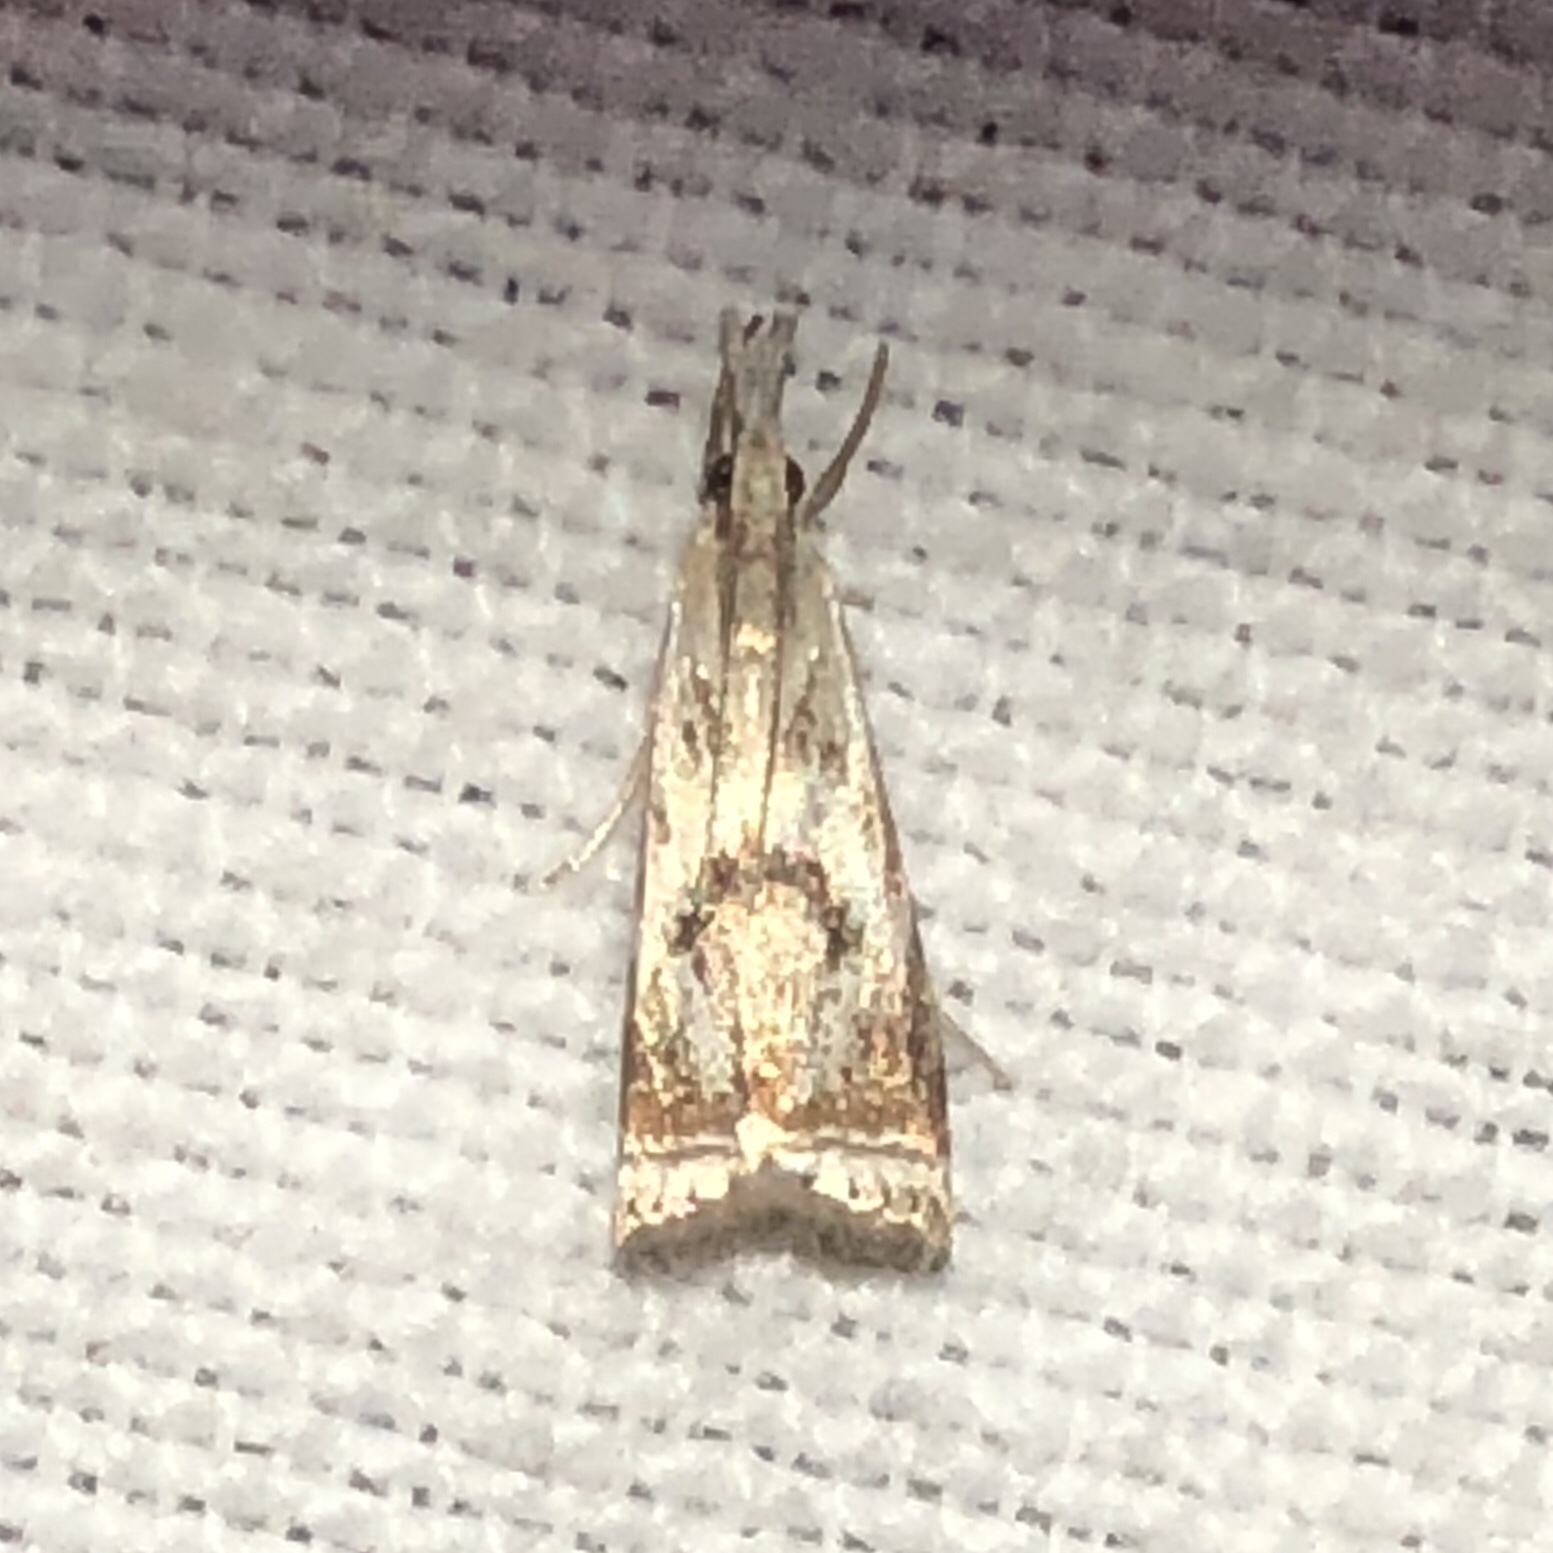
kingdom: Animalia
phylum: Arthropoda
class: Insecta
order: Lepidoptera
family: Crambidae
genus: Microcrambus
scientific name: Microcrambus elegans
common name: Elegant grass-veneer
